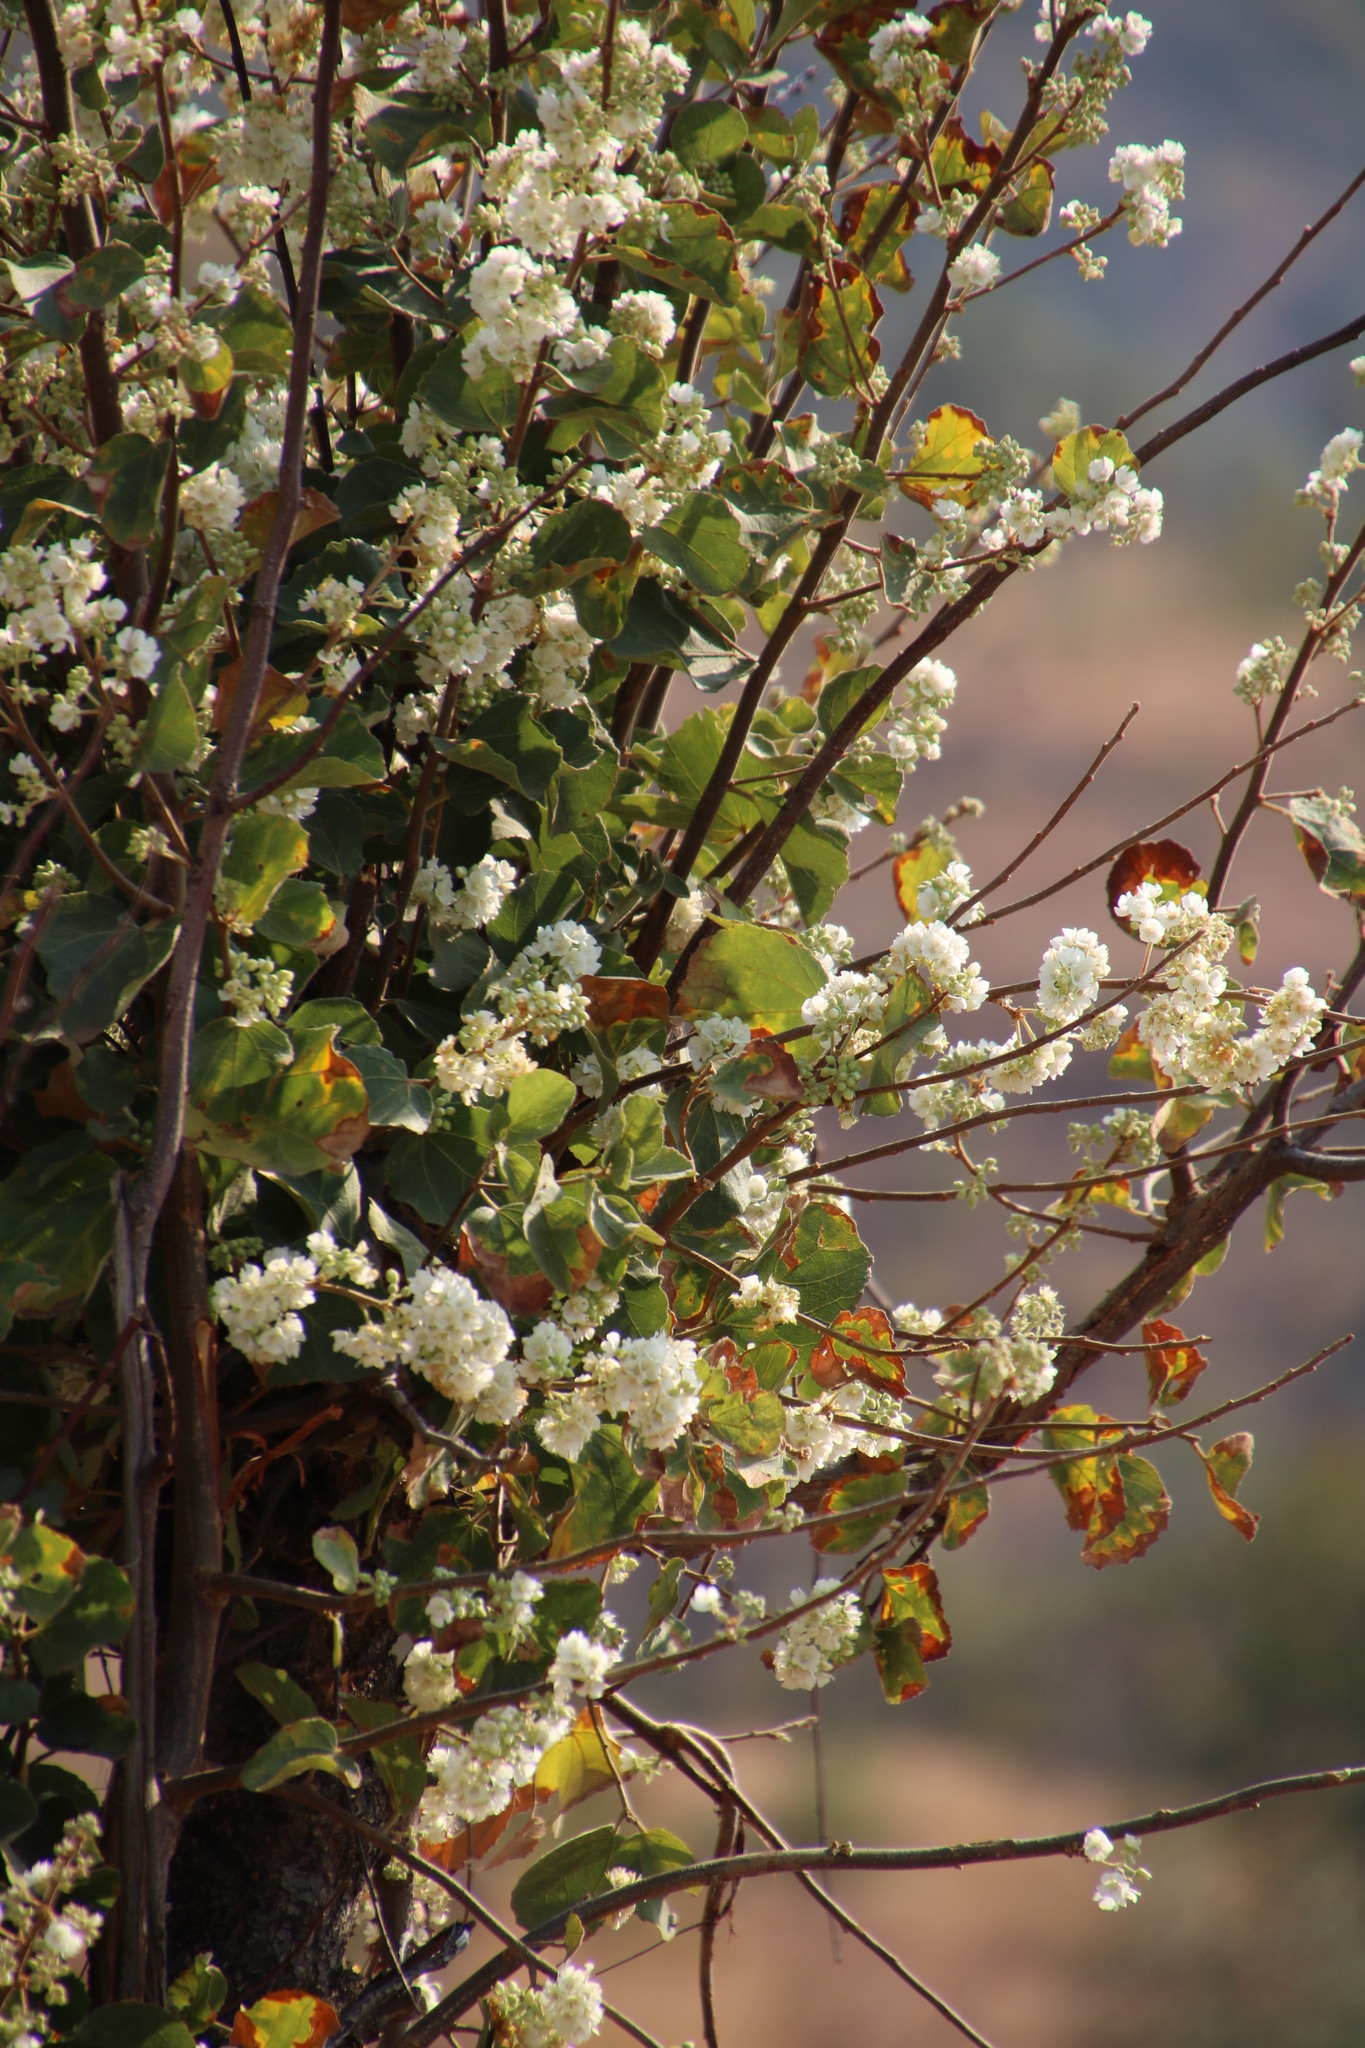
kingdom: Plantae
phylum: Tracheophyta
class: Magnoliopsida
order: Malvales
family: Malvaceae
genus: Dombeya
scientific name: Dombeya rotundifolia
